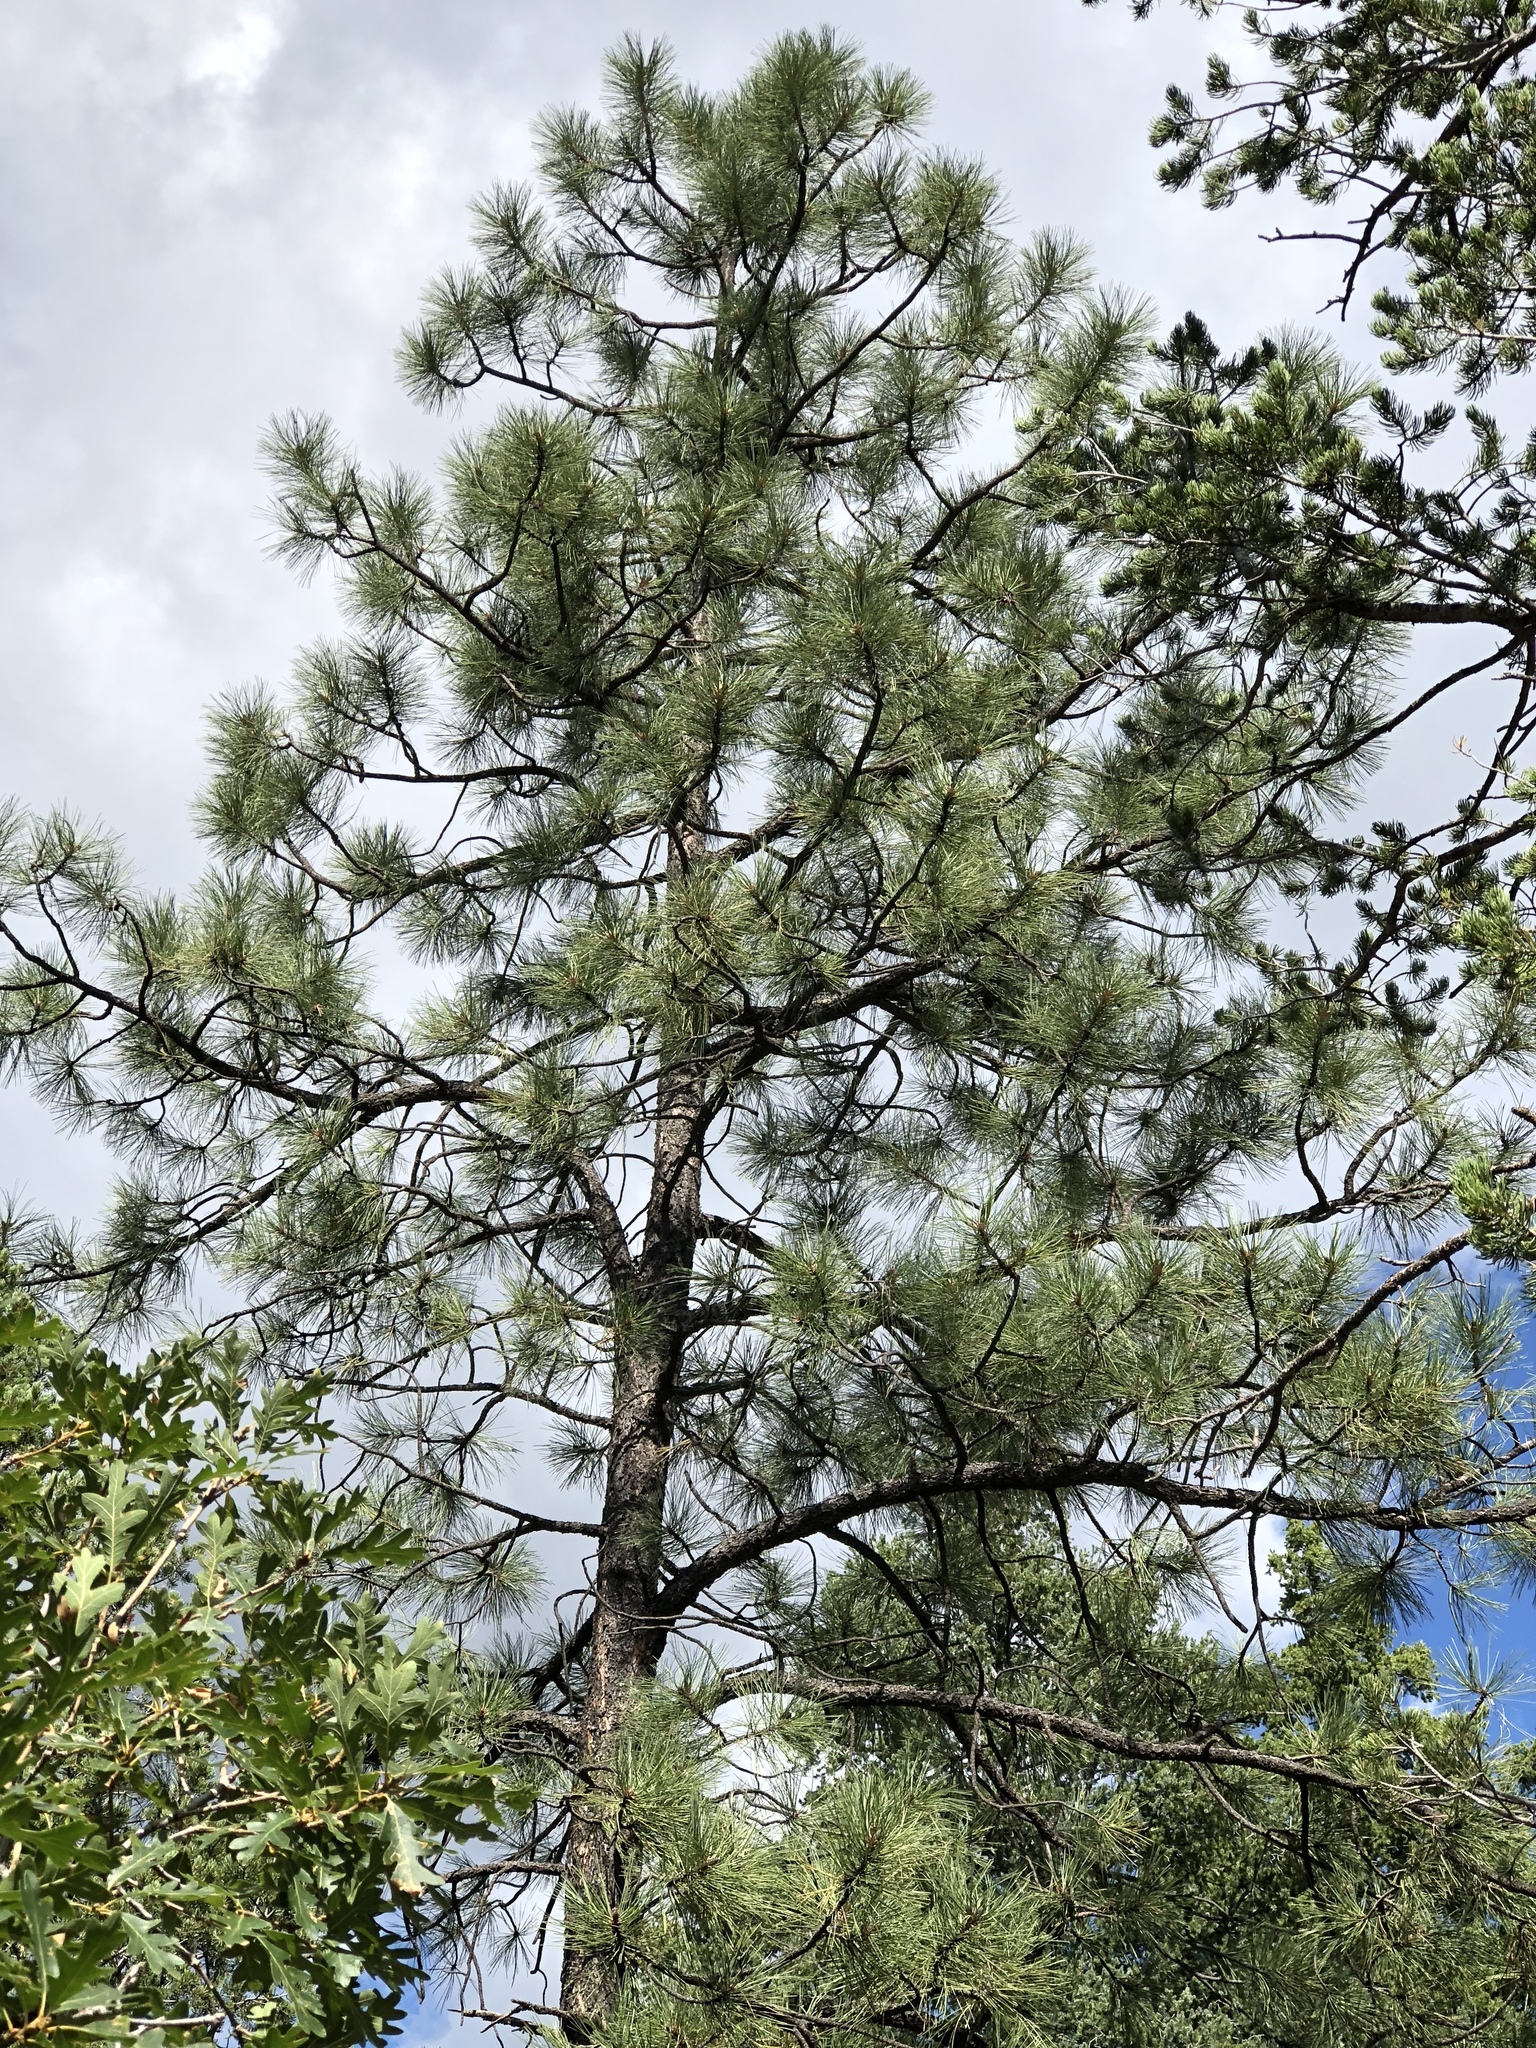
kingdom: Plantae
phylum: Tracheophyta
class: Pinopsida
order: Pinales
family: Pinaceae
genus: Pinus
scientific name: Pinus ponderosa
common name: Western yellow-pine
